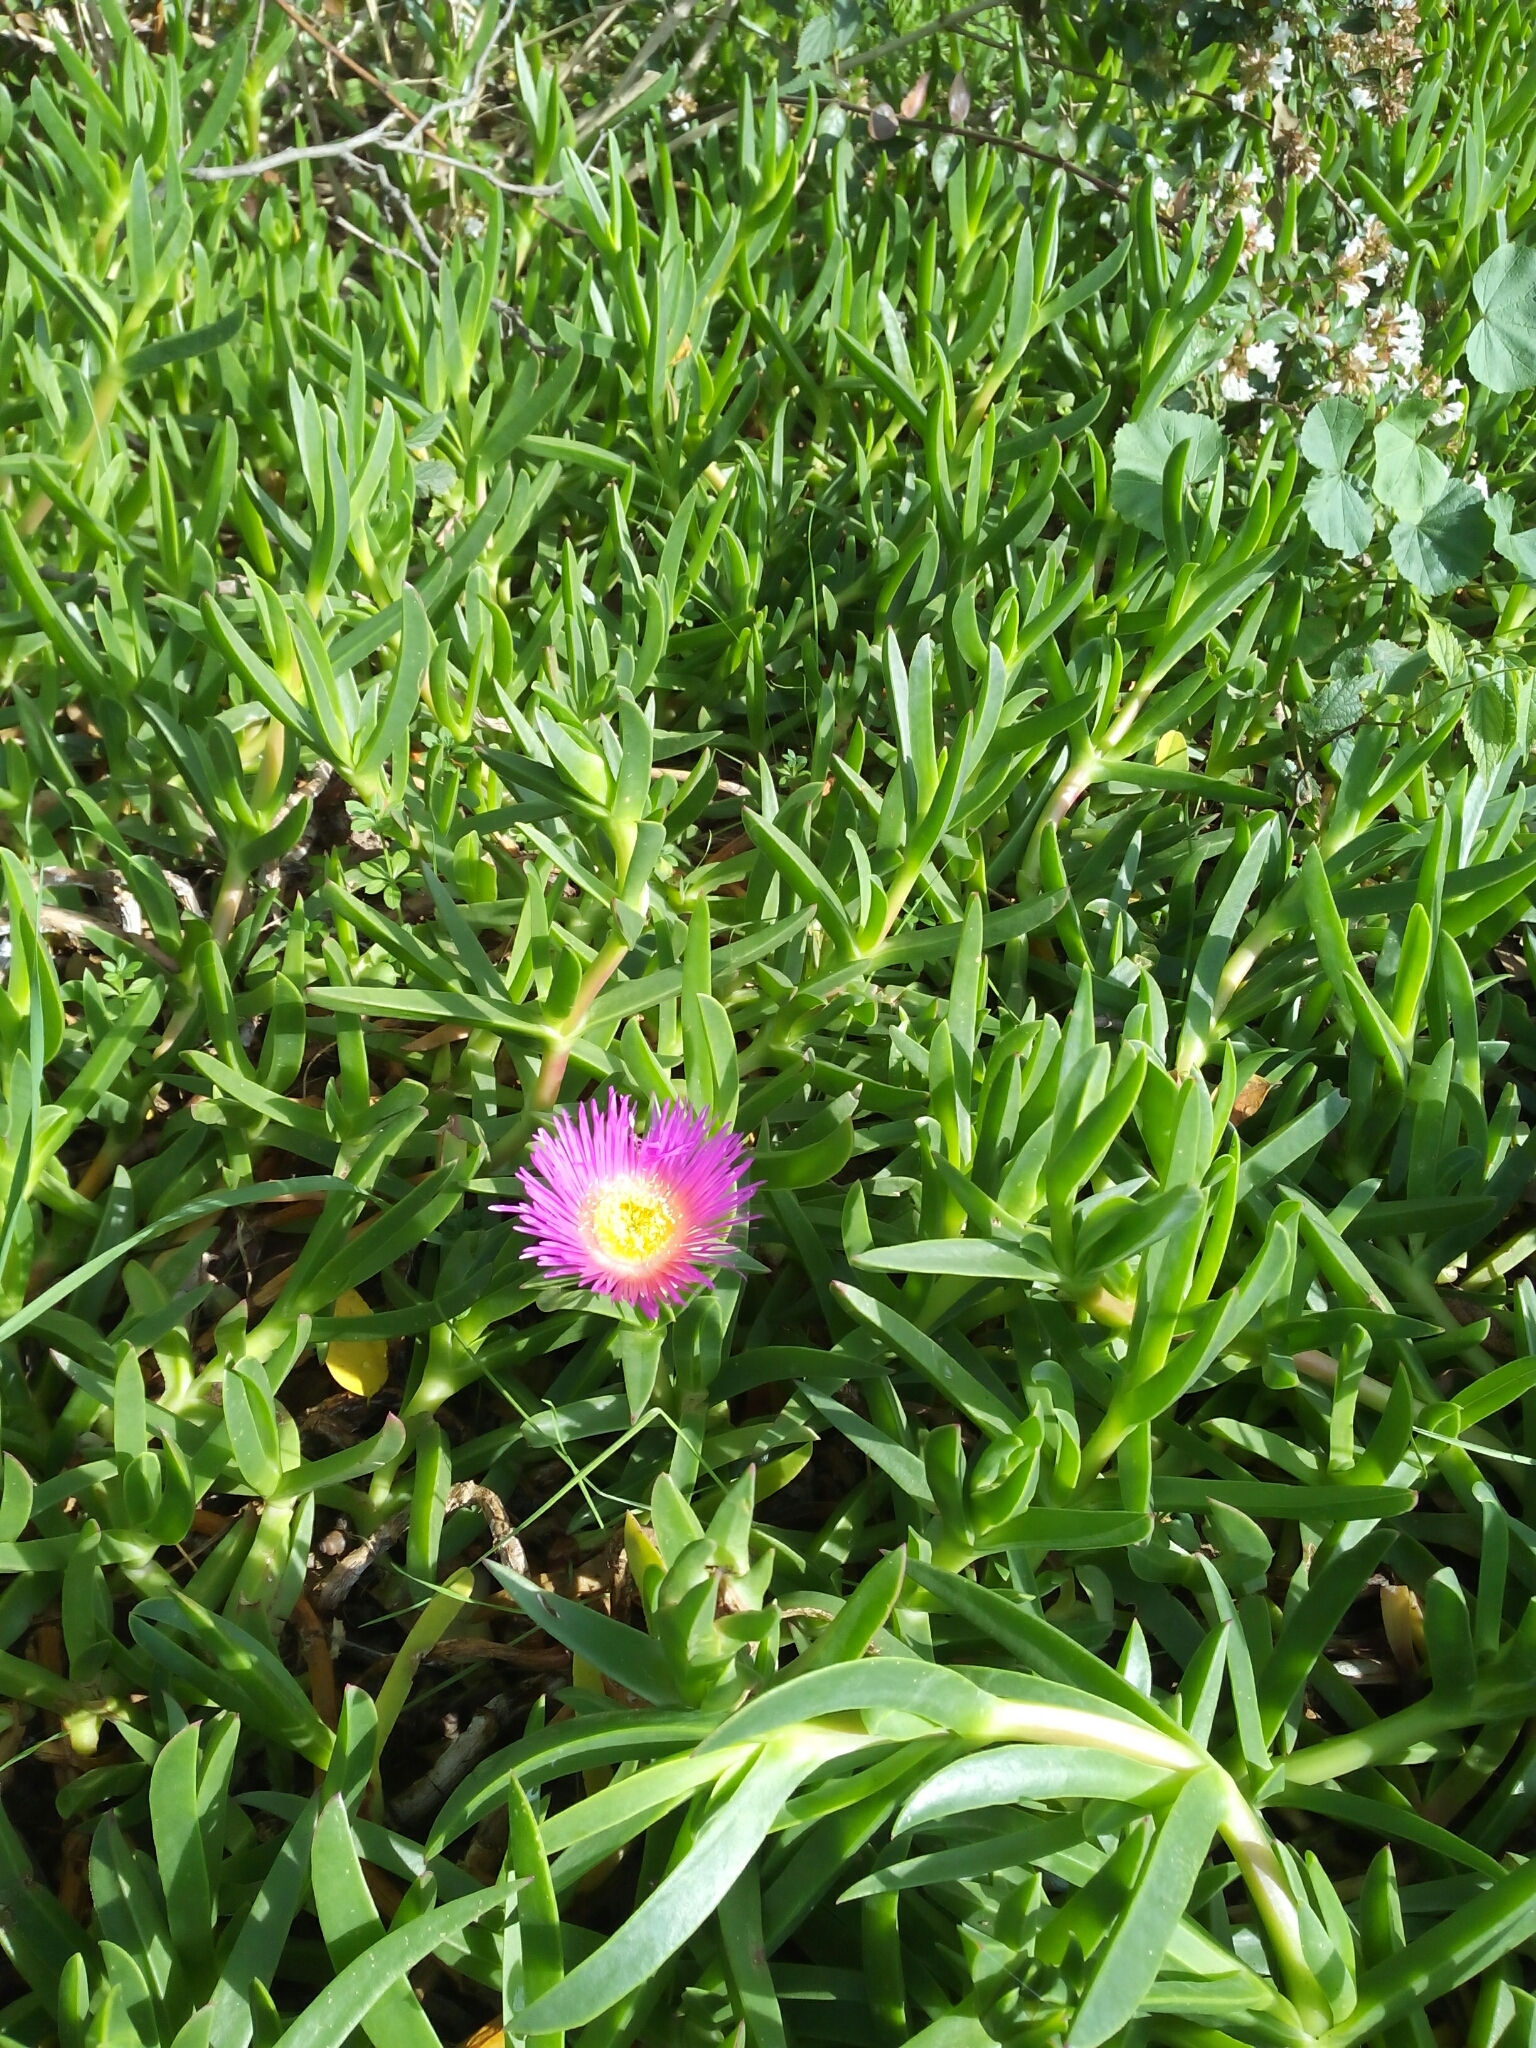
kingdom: Plantae
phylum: Tracheophyta
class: Magnoliopsida
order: Caryophyllales
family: Aizoaceae
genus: Carpobrotus
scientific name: Carpobrotus acinaciformis
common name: Sally-my-handsome
